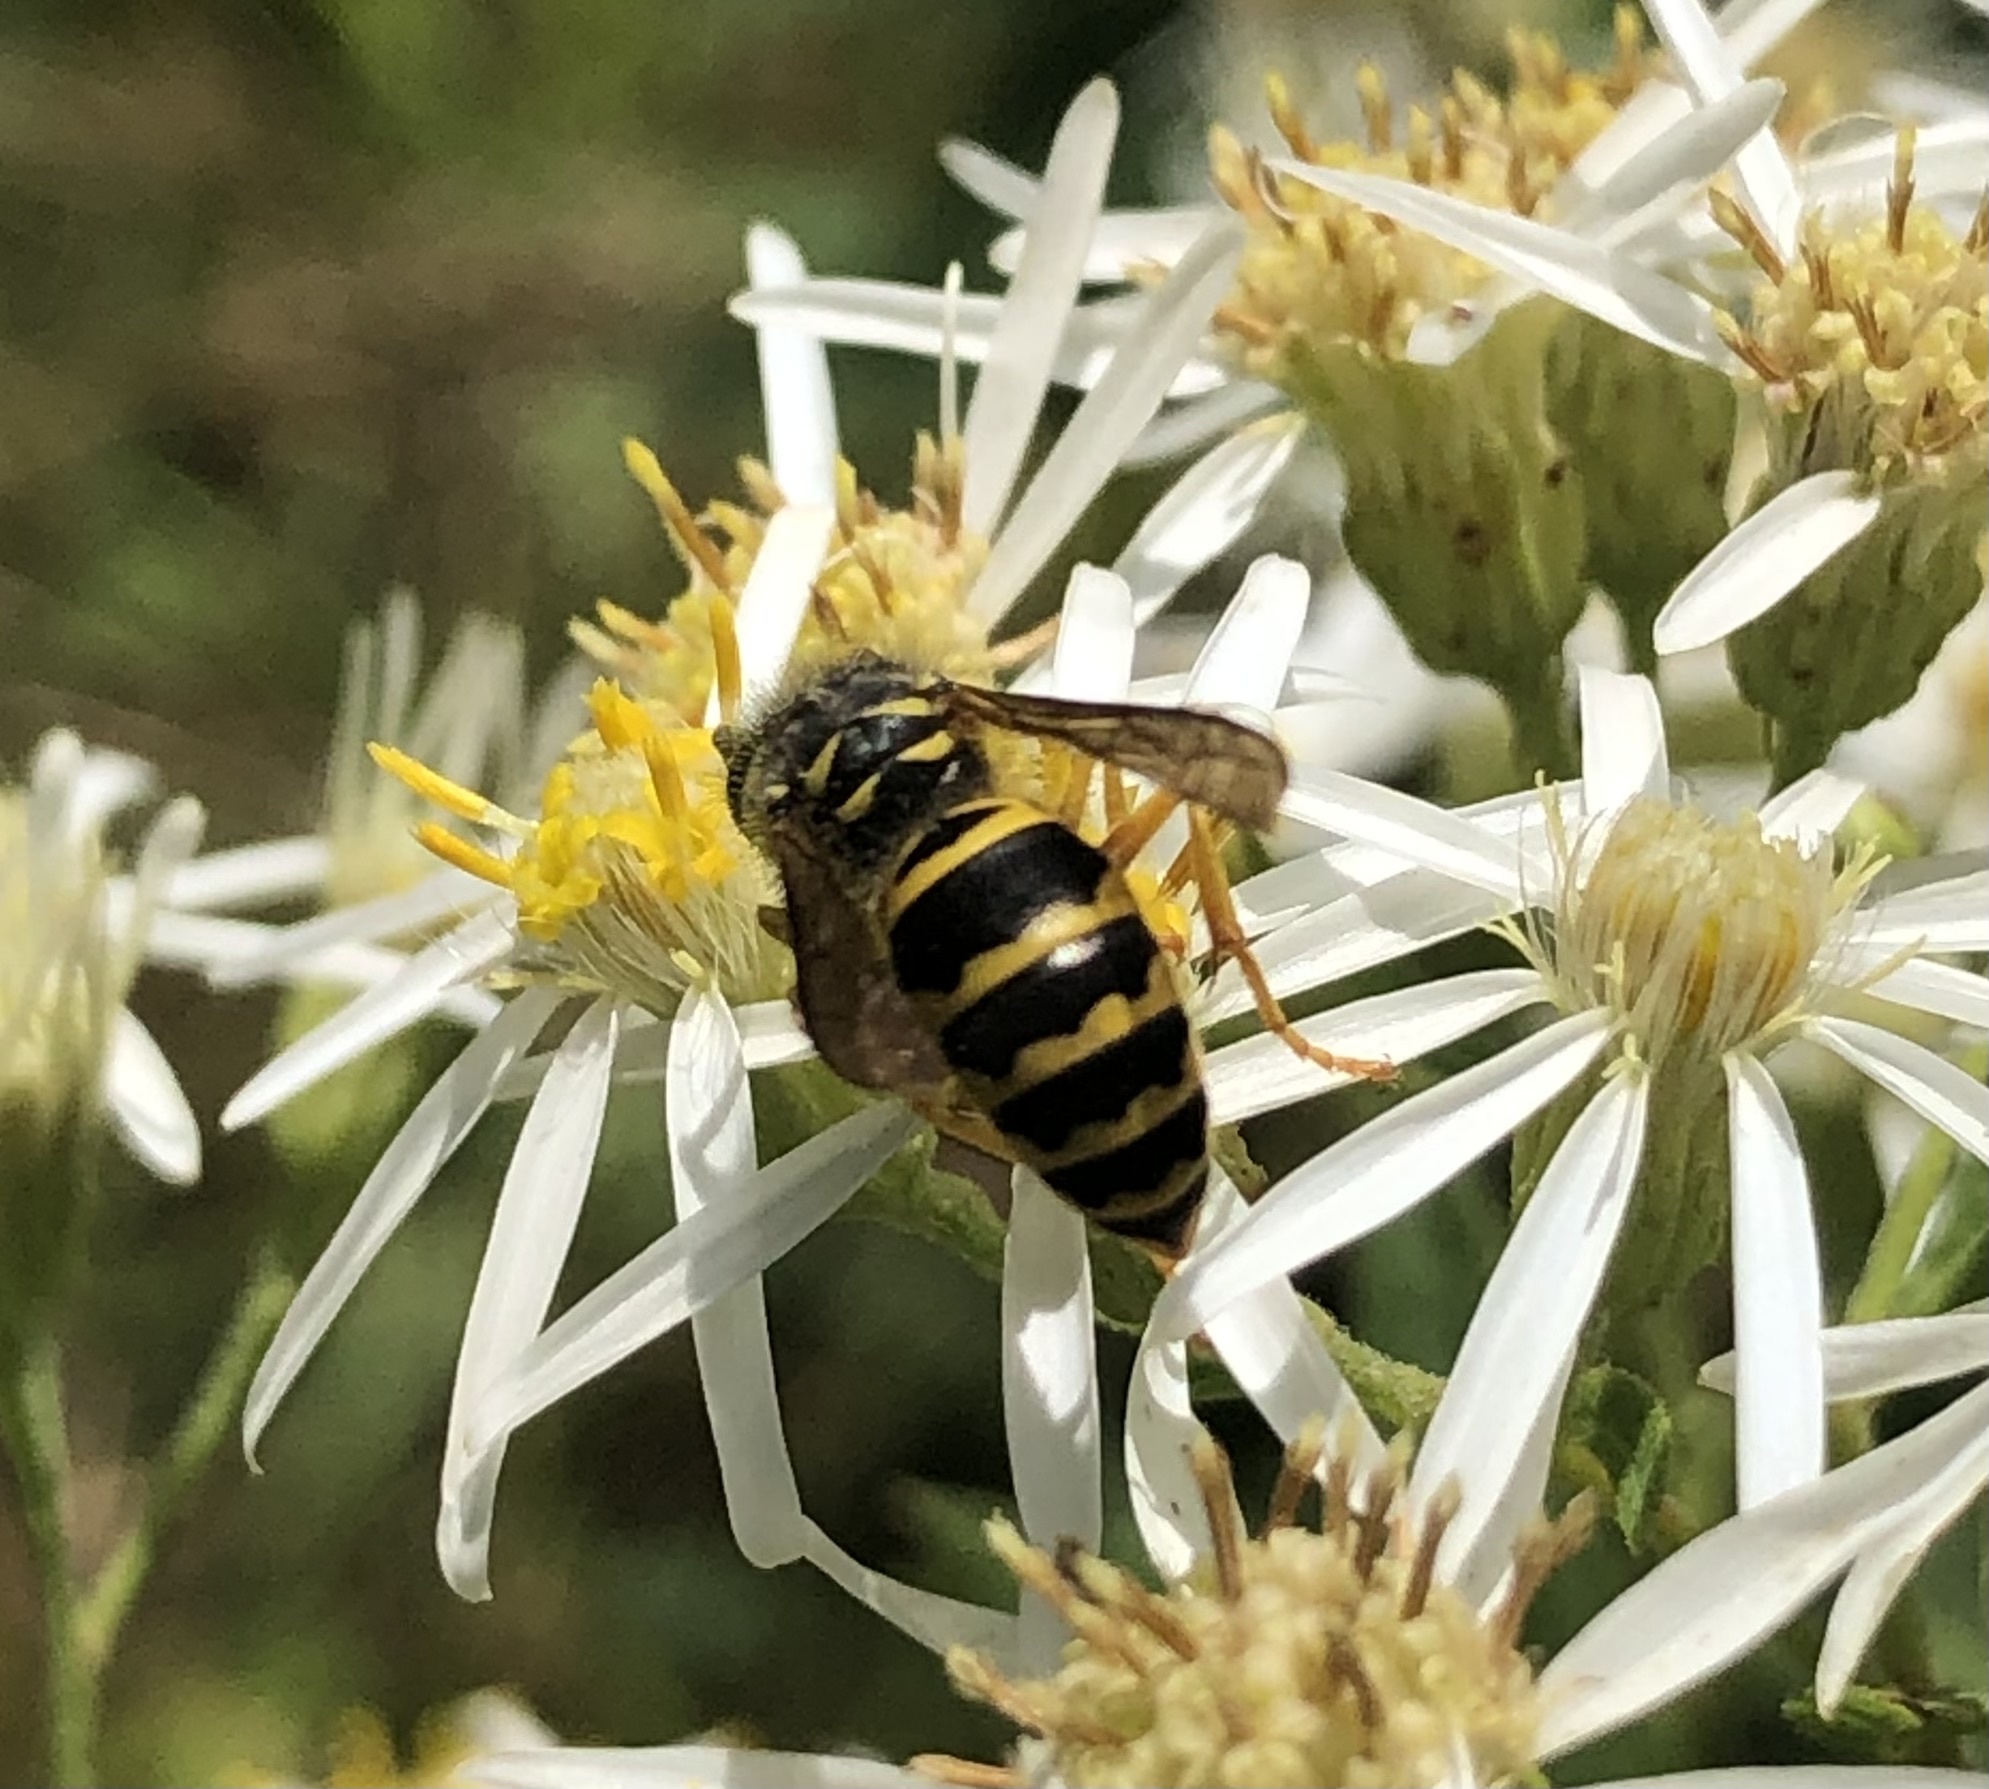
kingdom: Animalia
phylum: Arthropoda
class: Insecta
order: Hymenoptera
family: Vespidae
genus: Vespula
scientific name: Vespula maculifrons
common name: Eastern yellowjacket
